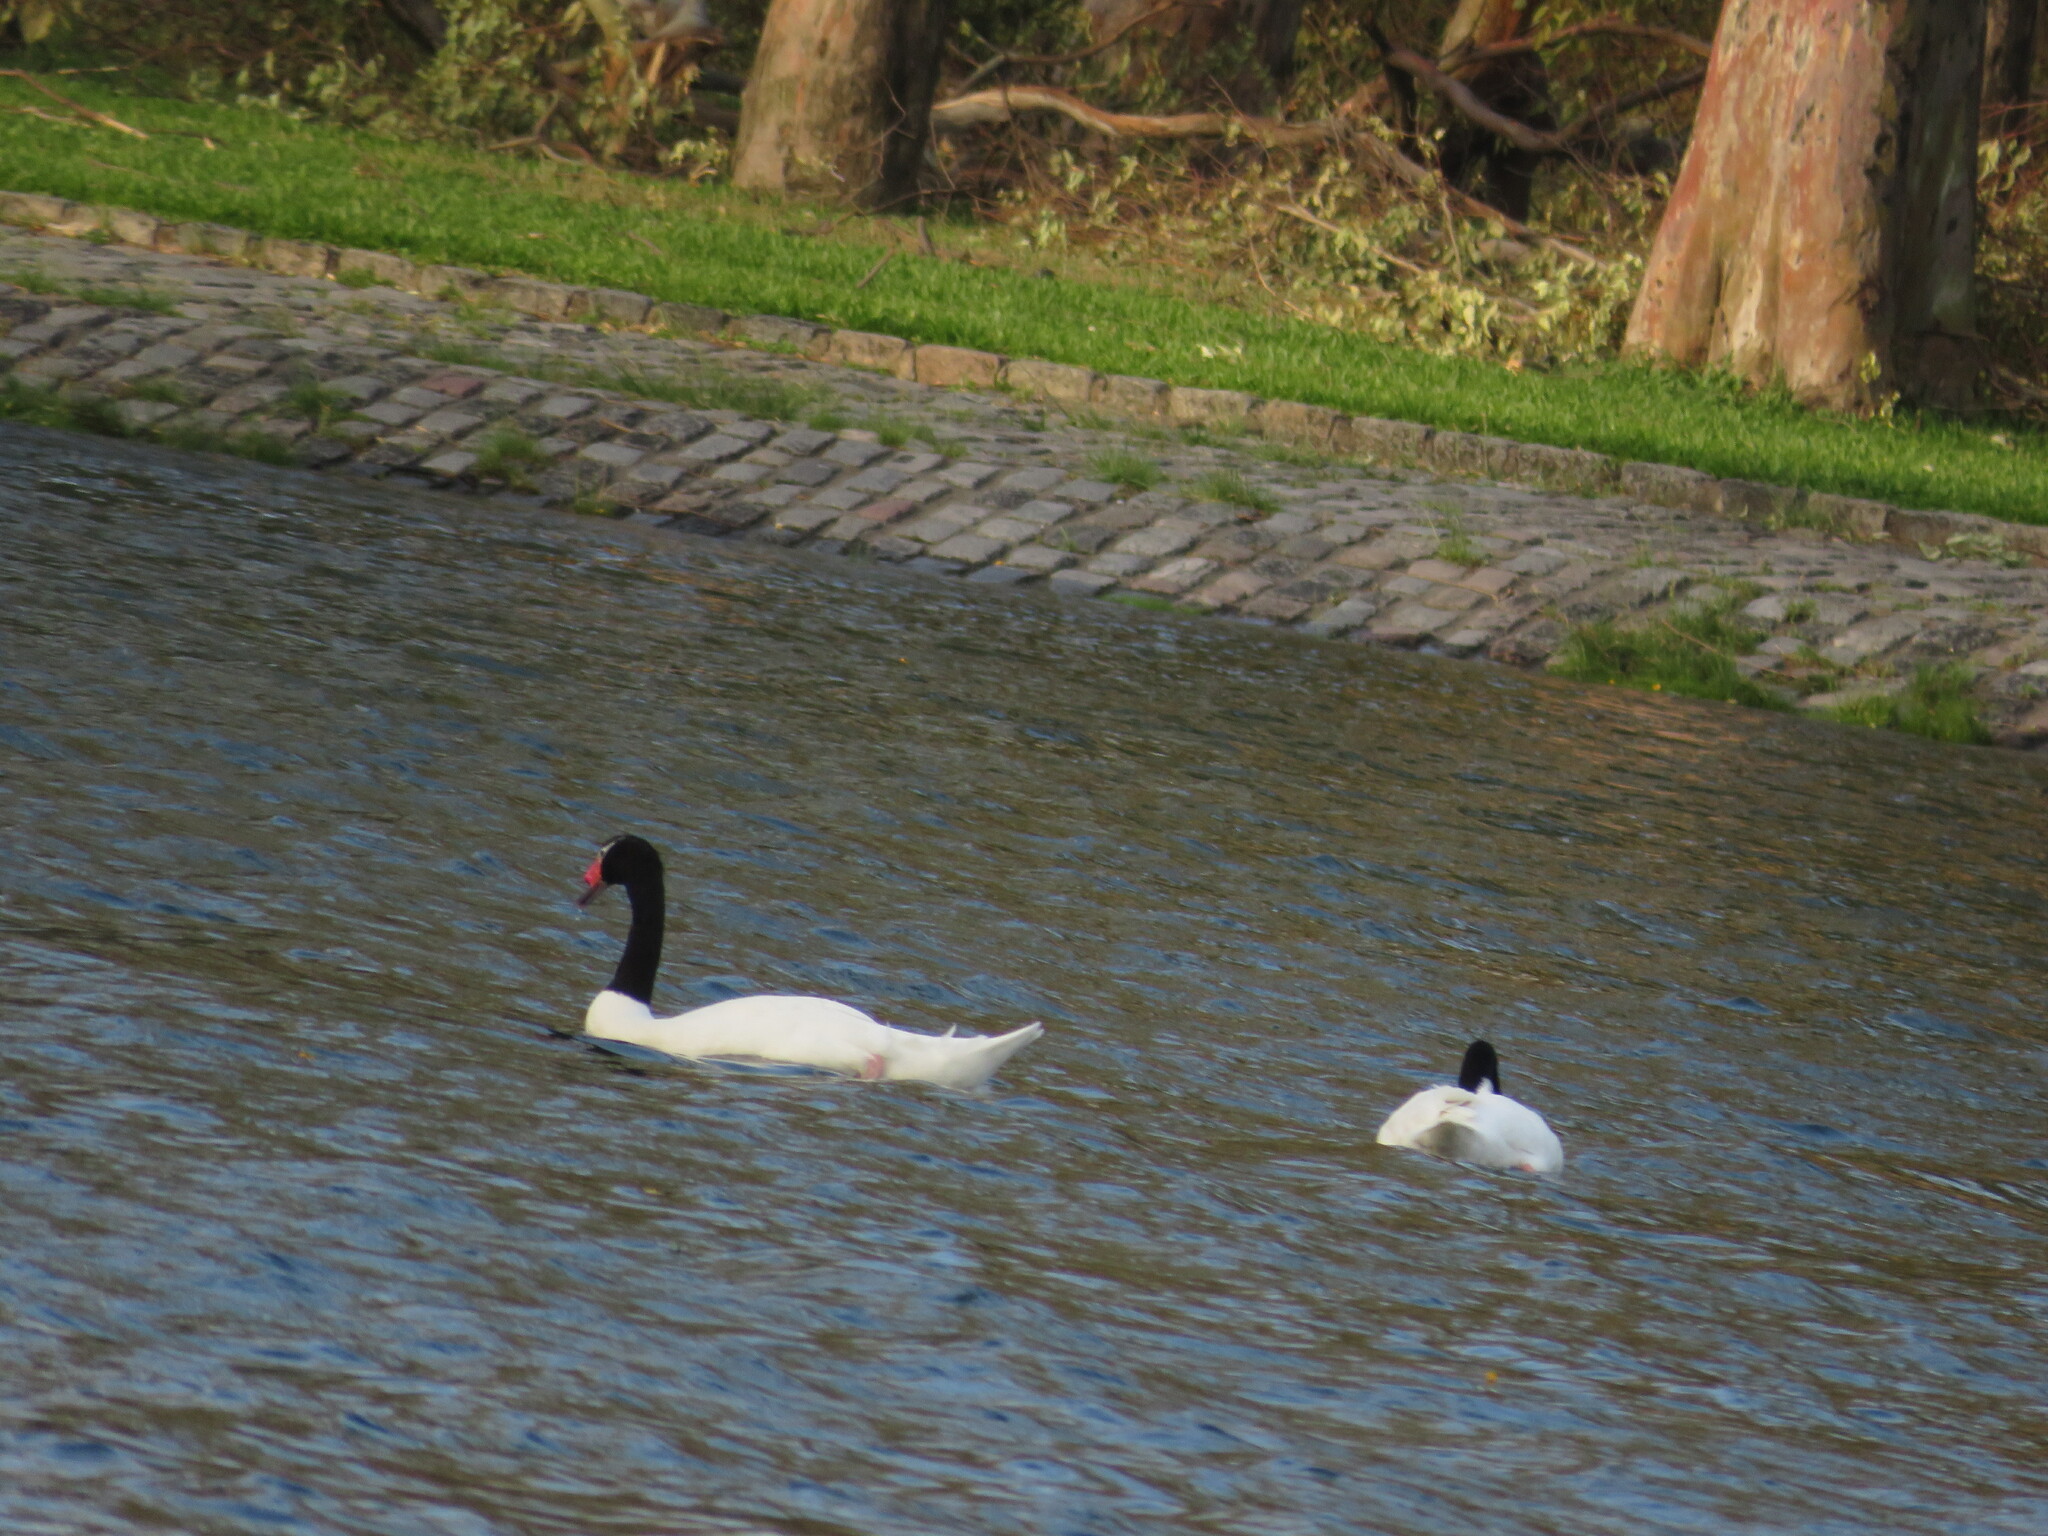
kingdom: Animalia
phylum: Chordata
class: Aves
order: Anseriformes
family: Anatidae
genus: Cygnus
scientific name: Cygnus melancoryphus
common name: Black-necked swan
